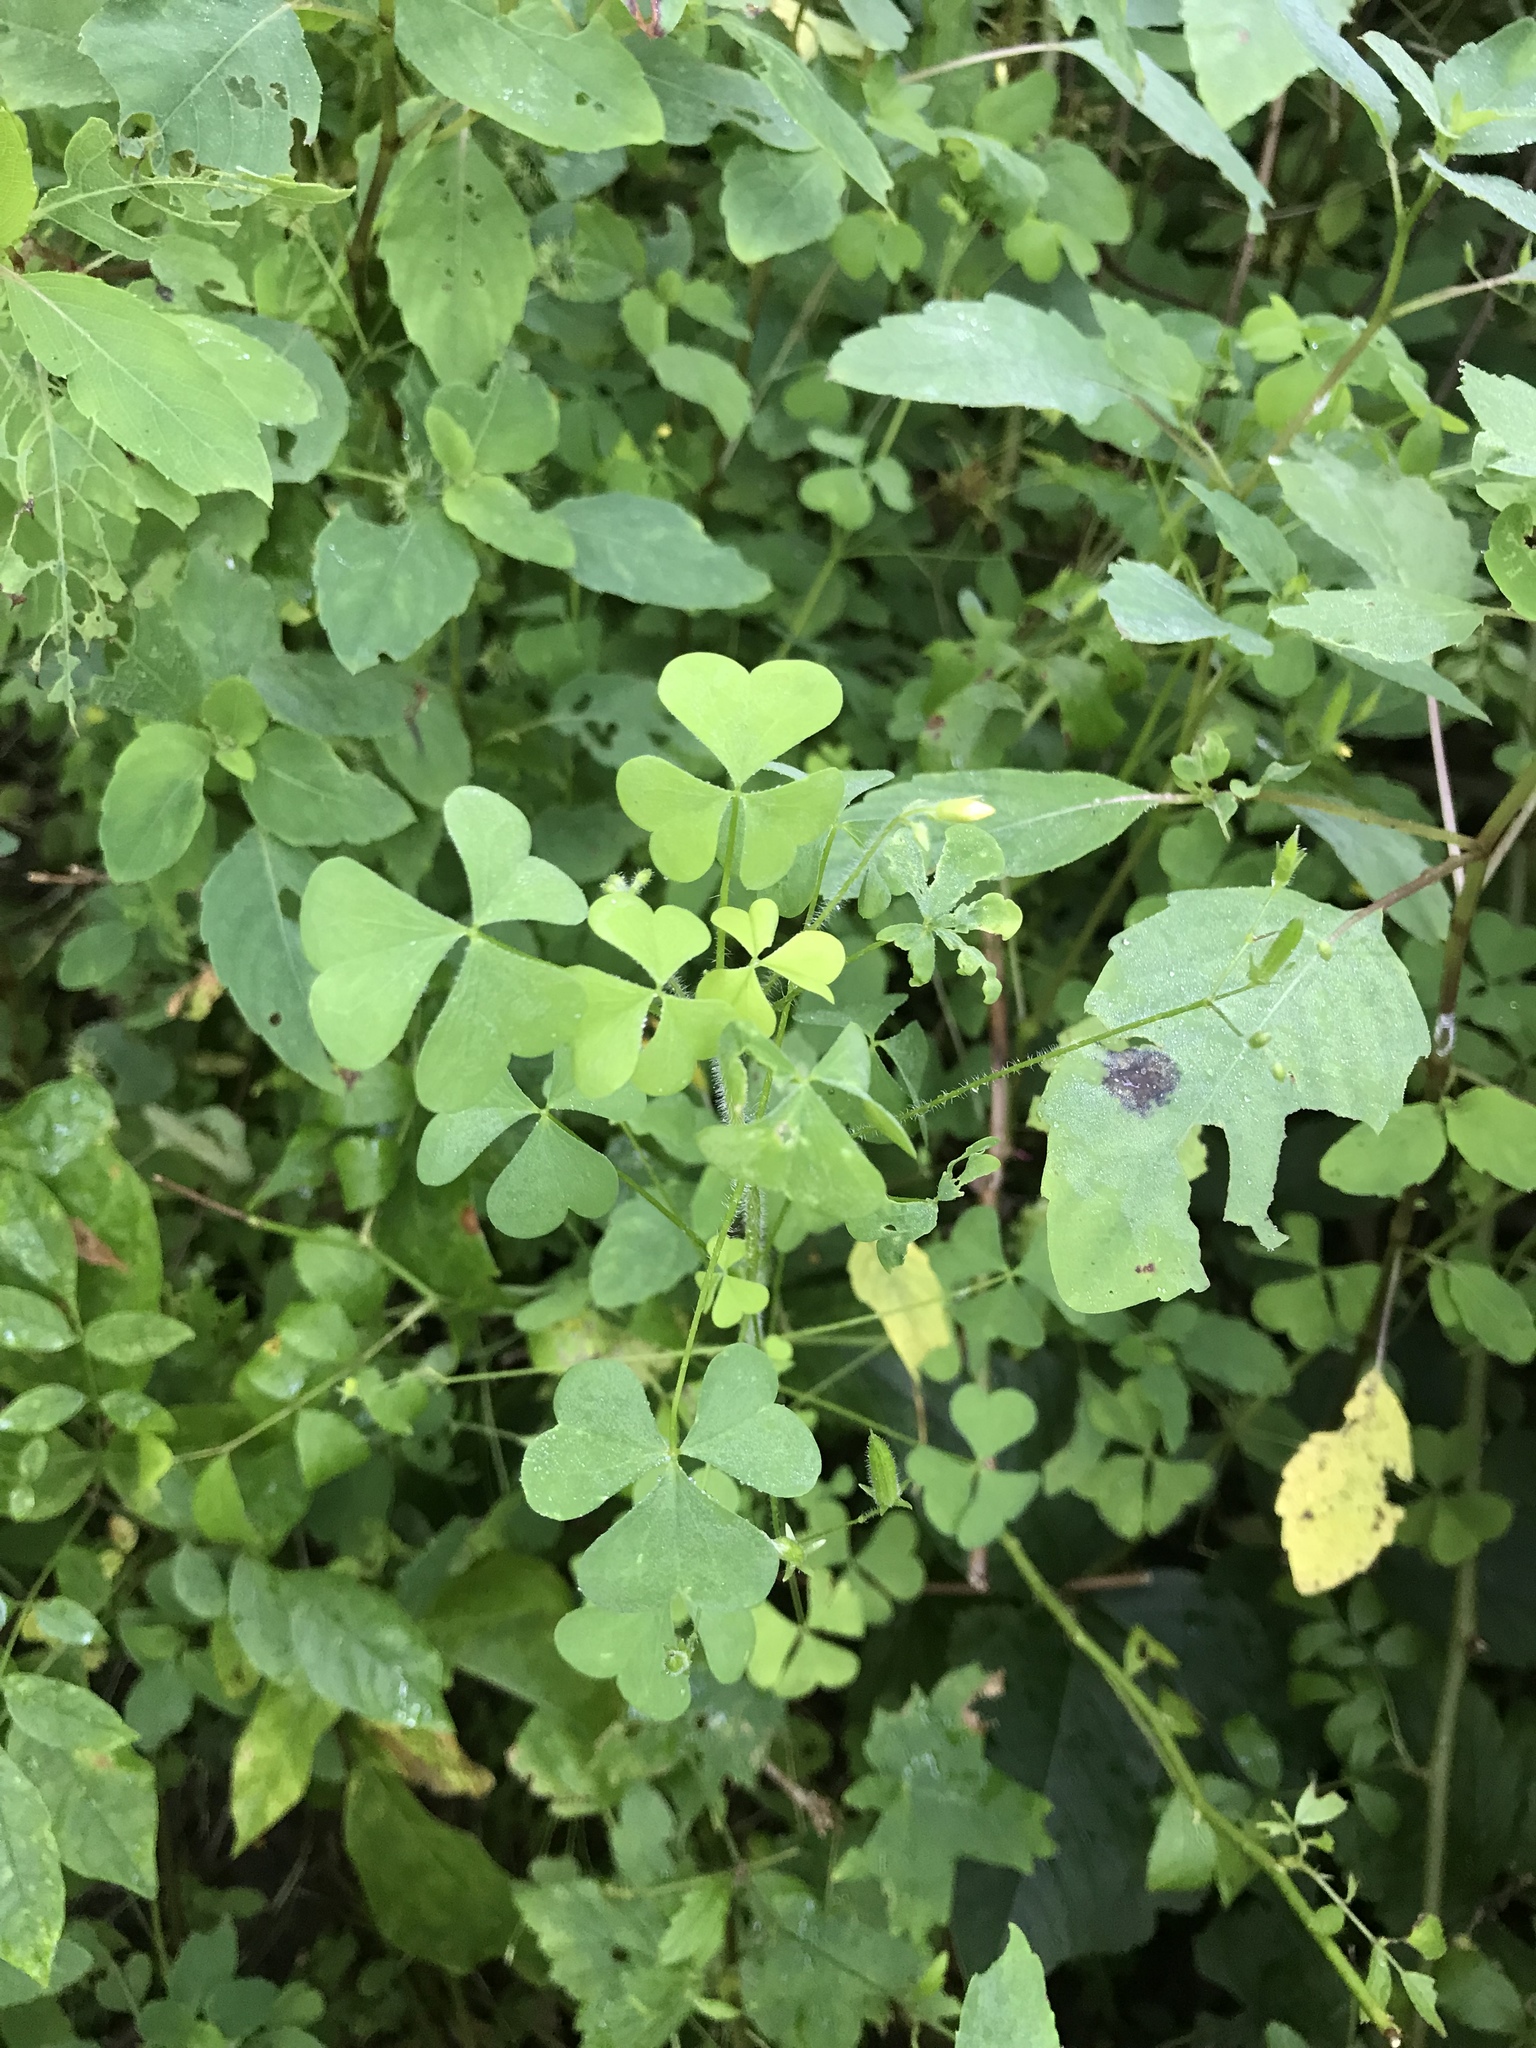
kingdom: Plantae
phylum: Tracheophyta
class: Magnoliopsida
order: Oxalidales
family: Oxalidaceae
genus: Oxalis
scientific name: Oxalis stricta
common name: Upright yellow-sorrel
